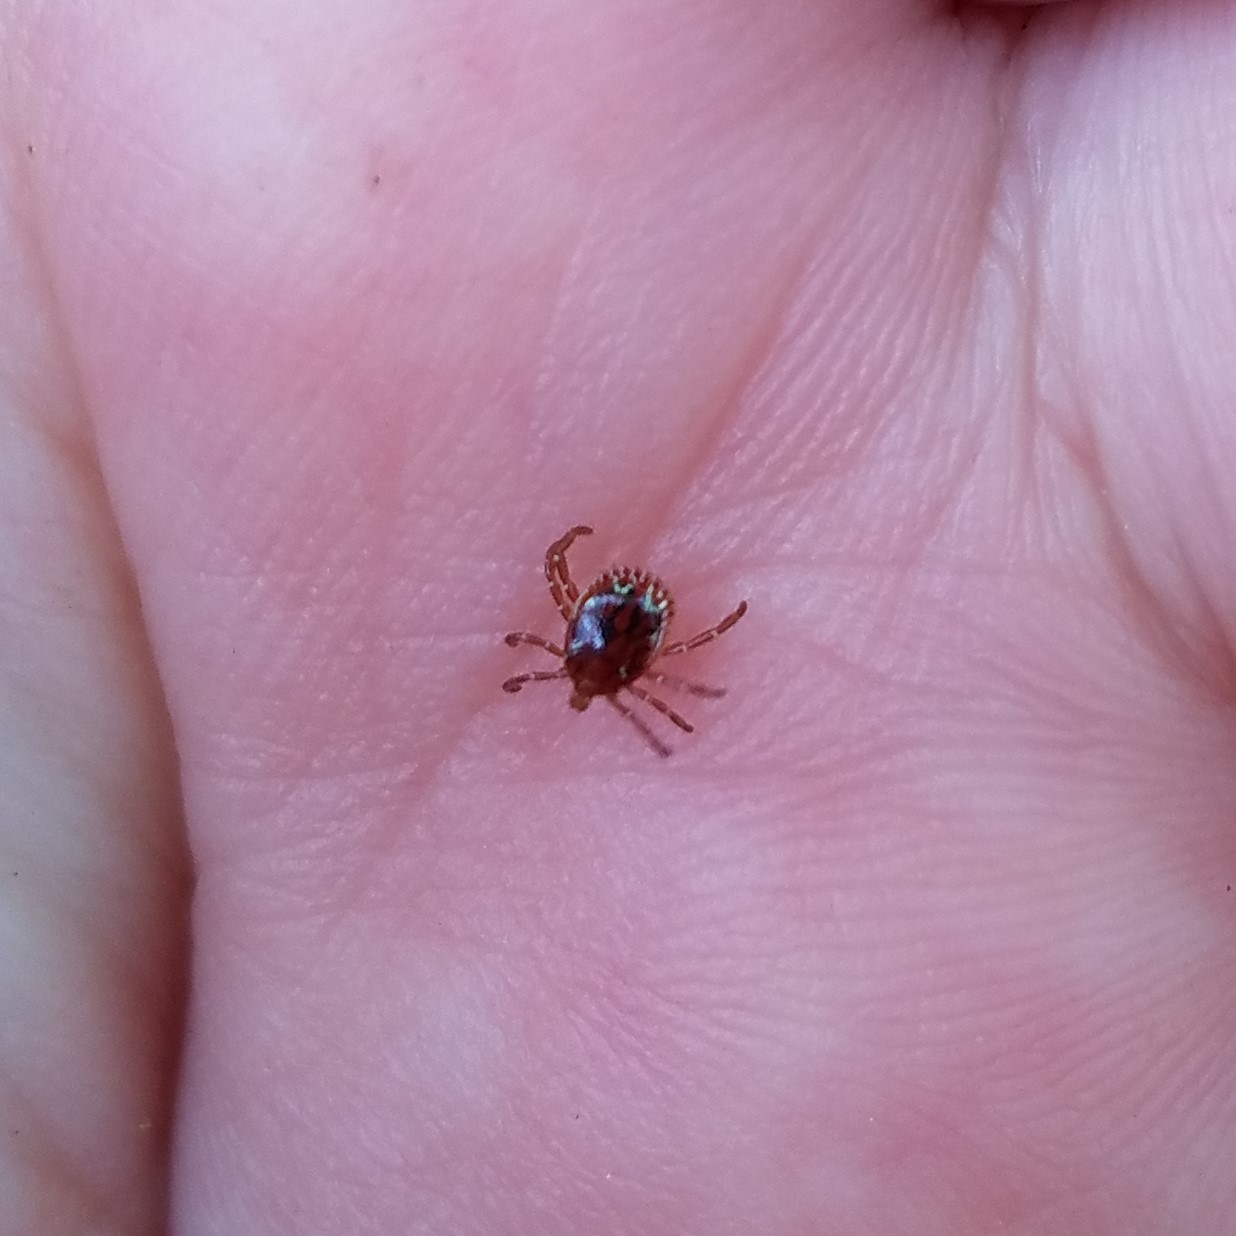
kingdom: Animalia
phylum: Arthropoda
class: Arachnida
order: Ixodida
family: Ixodidae
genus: Amblyomma
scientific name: Amblyomma americanum
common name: Lone star tick
